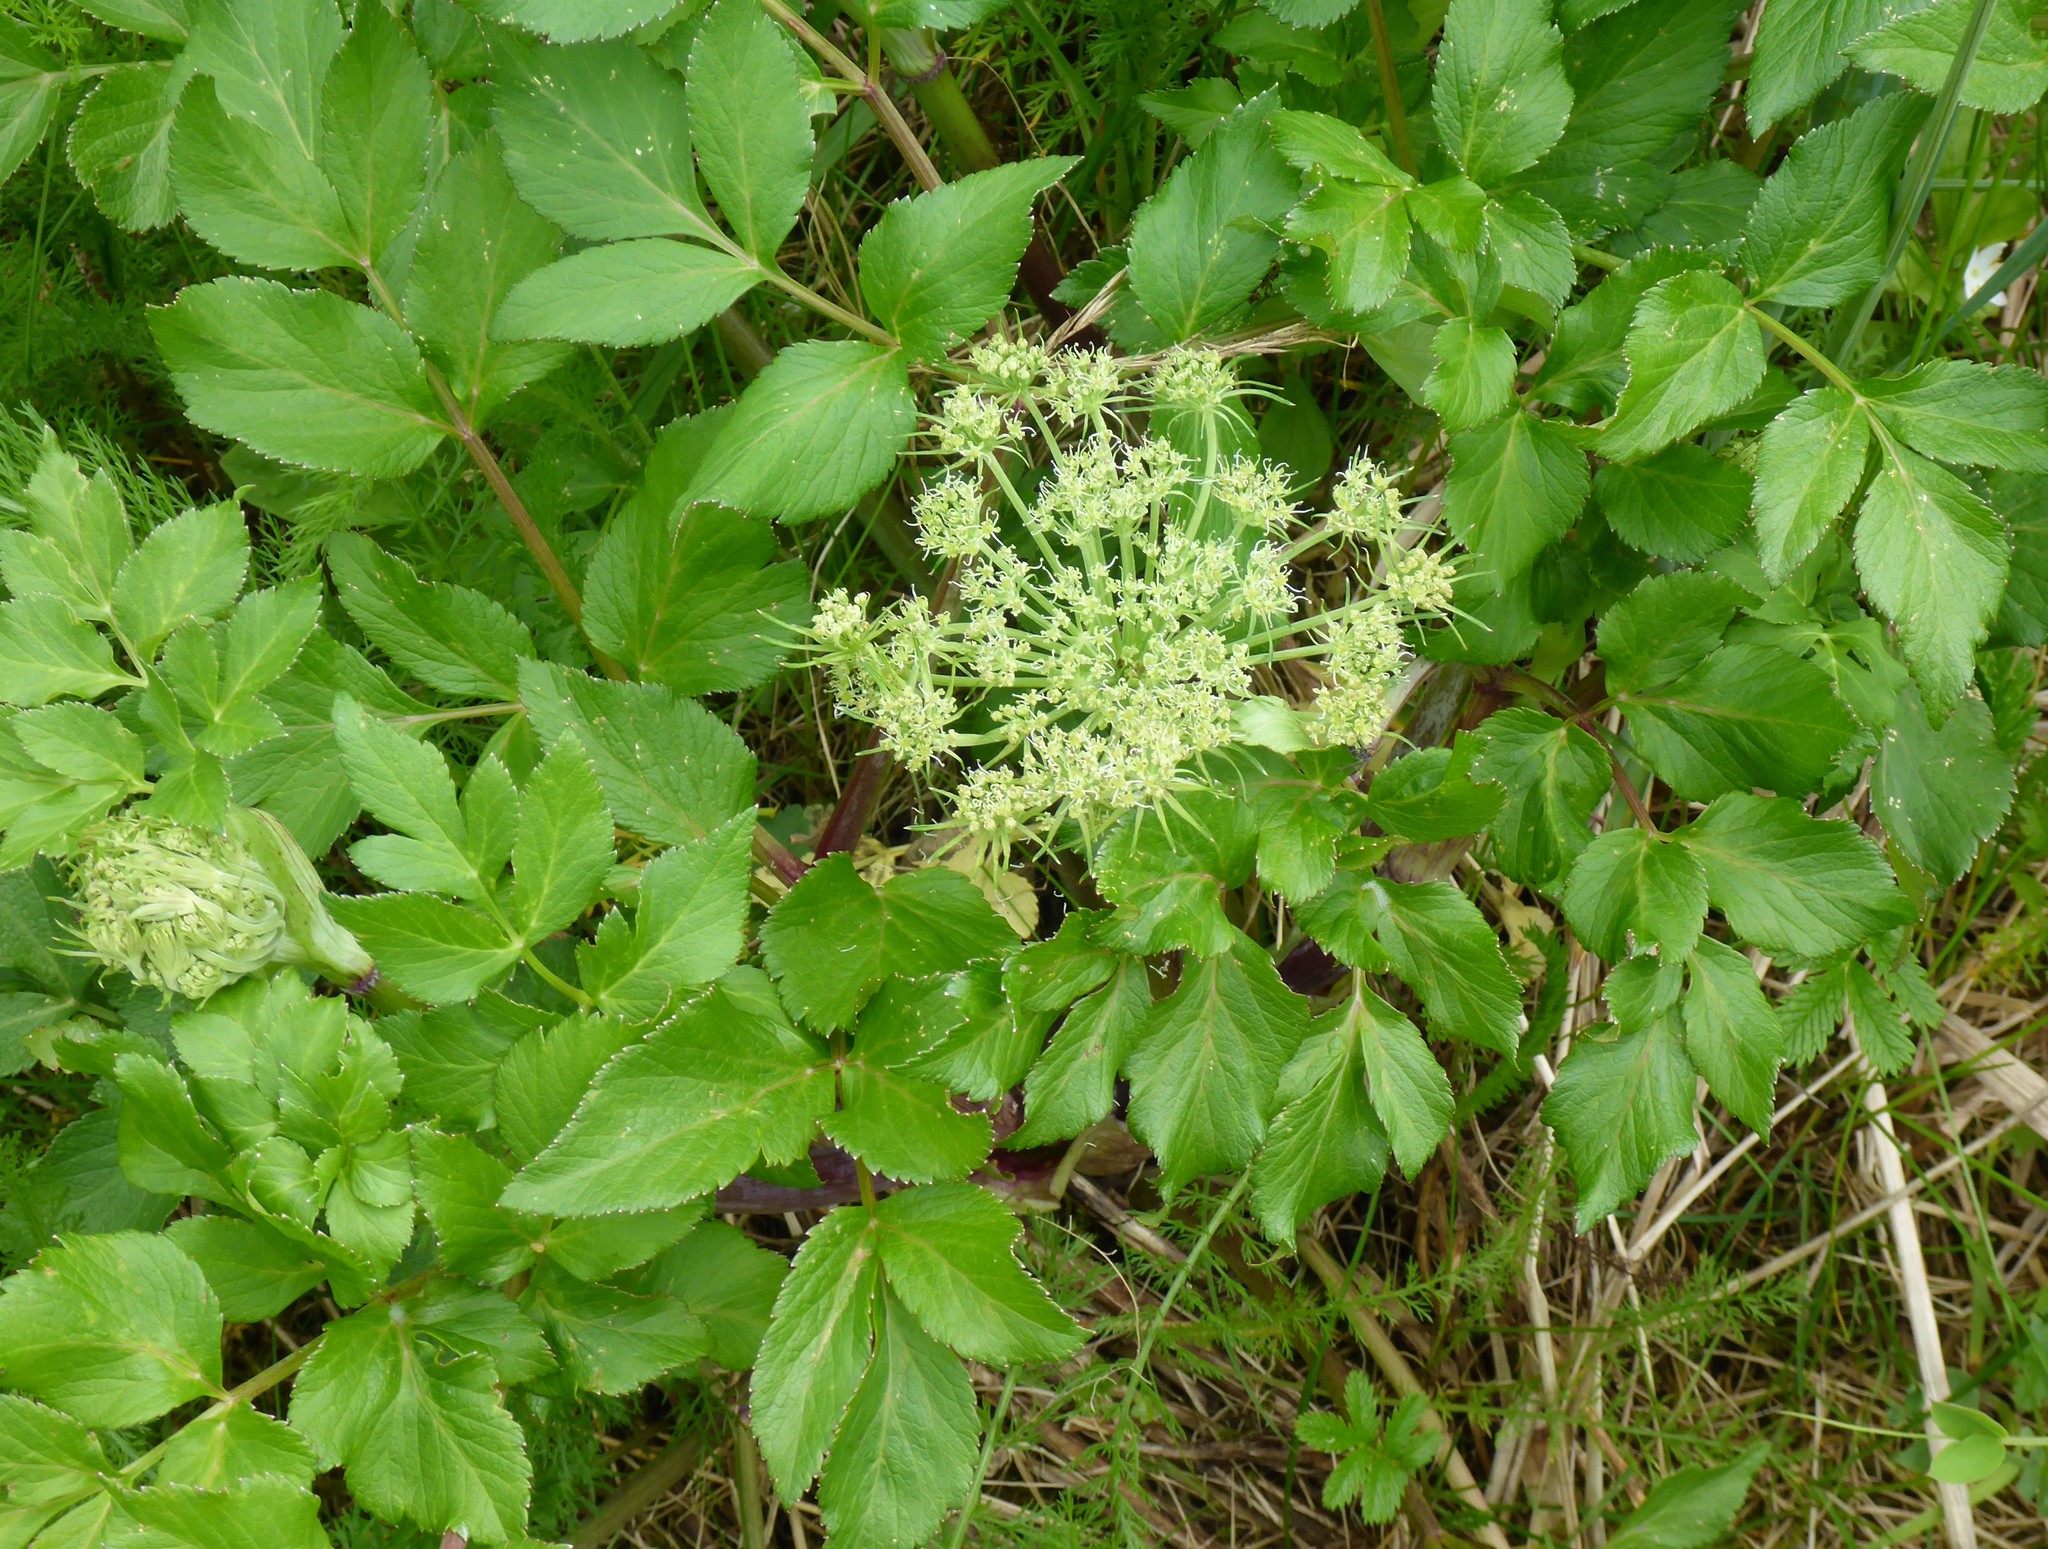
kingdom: Plantae
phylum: Tracheophyta
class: Magnoliopsida
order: Apiales
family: Apiaceae
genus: Angelica
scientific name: Angelica lucida
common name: Seabeach angelica
